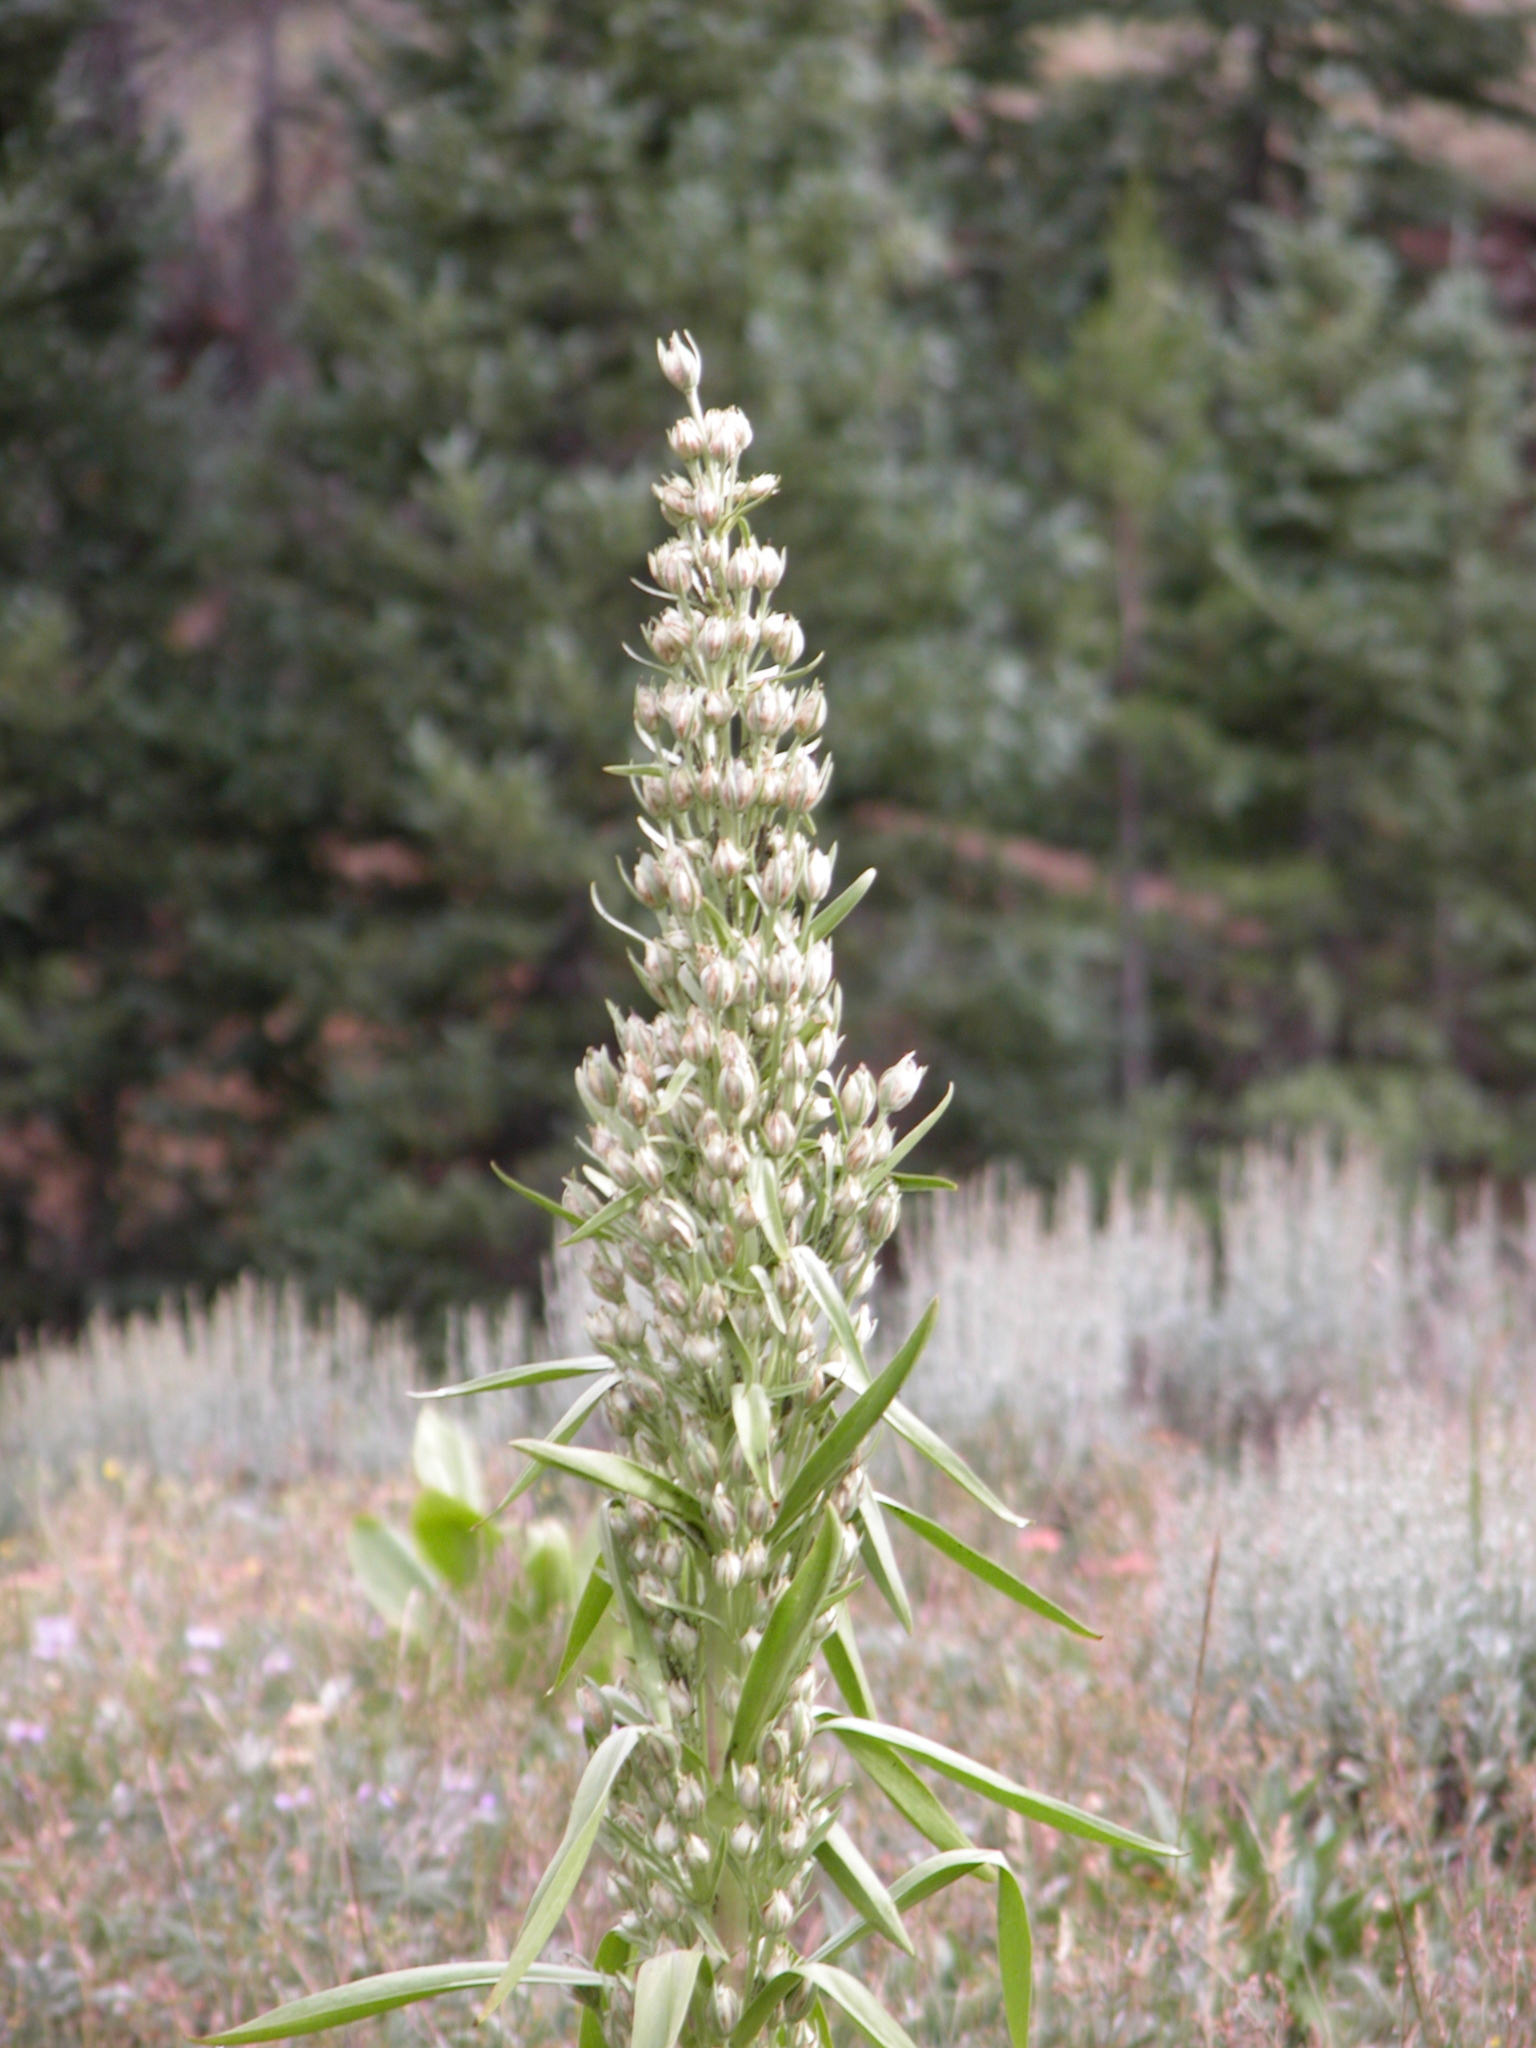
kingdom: Plantae
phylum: Tracheophyta
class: Magnoliopsida
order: Gentianales
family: Gentianaceae
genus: Frasera
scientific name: Frasera speciosa
